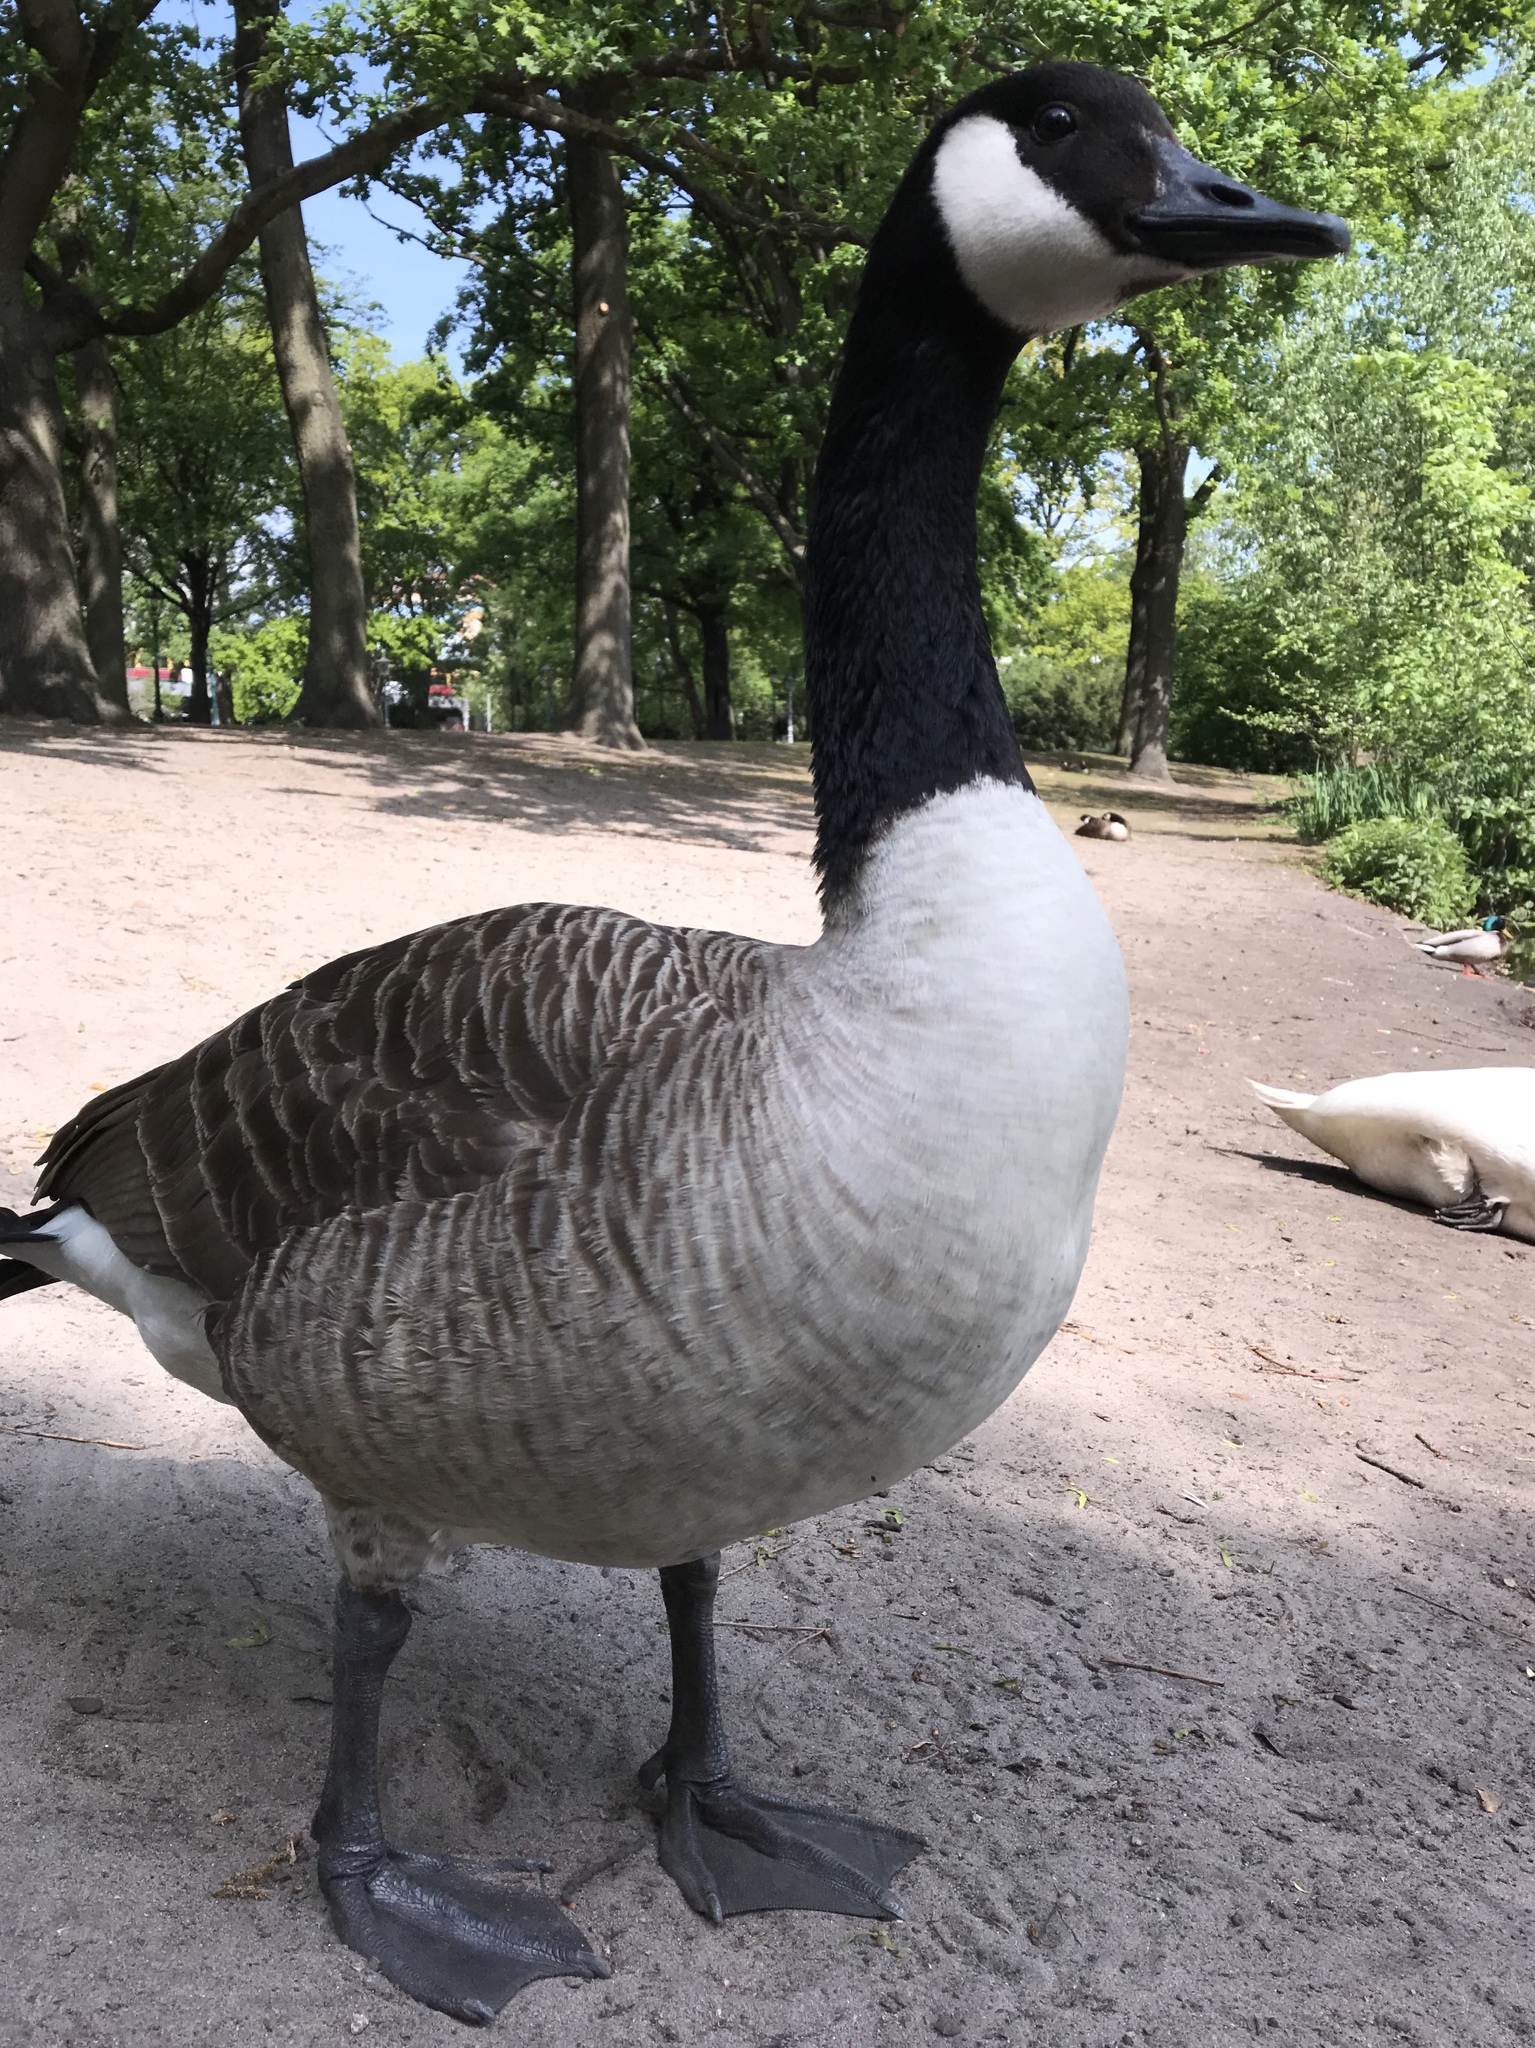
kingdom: Animalia
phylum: Chordata
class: Aves
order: Anseriformes
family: Anatidae
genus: Branta
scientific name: Branta canadensis
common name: Canada goose
